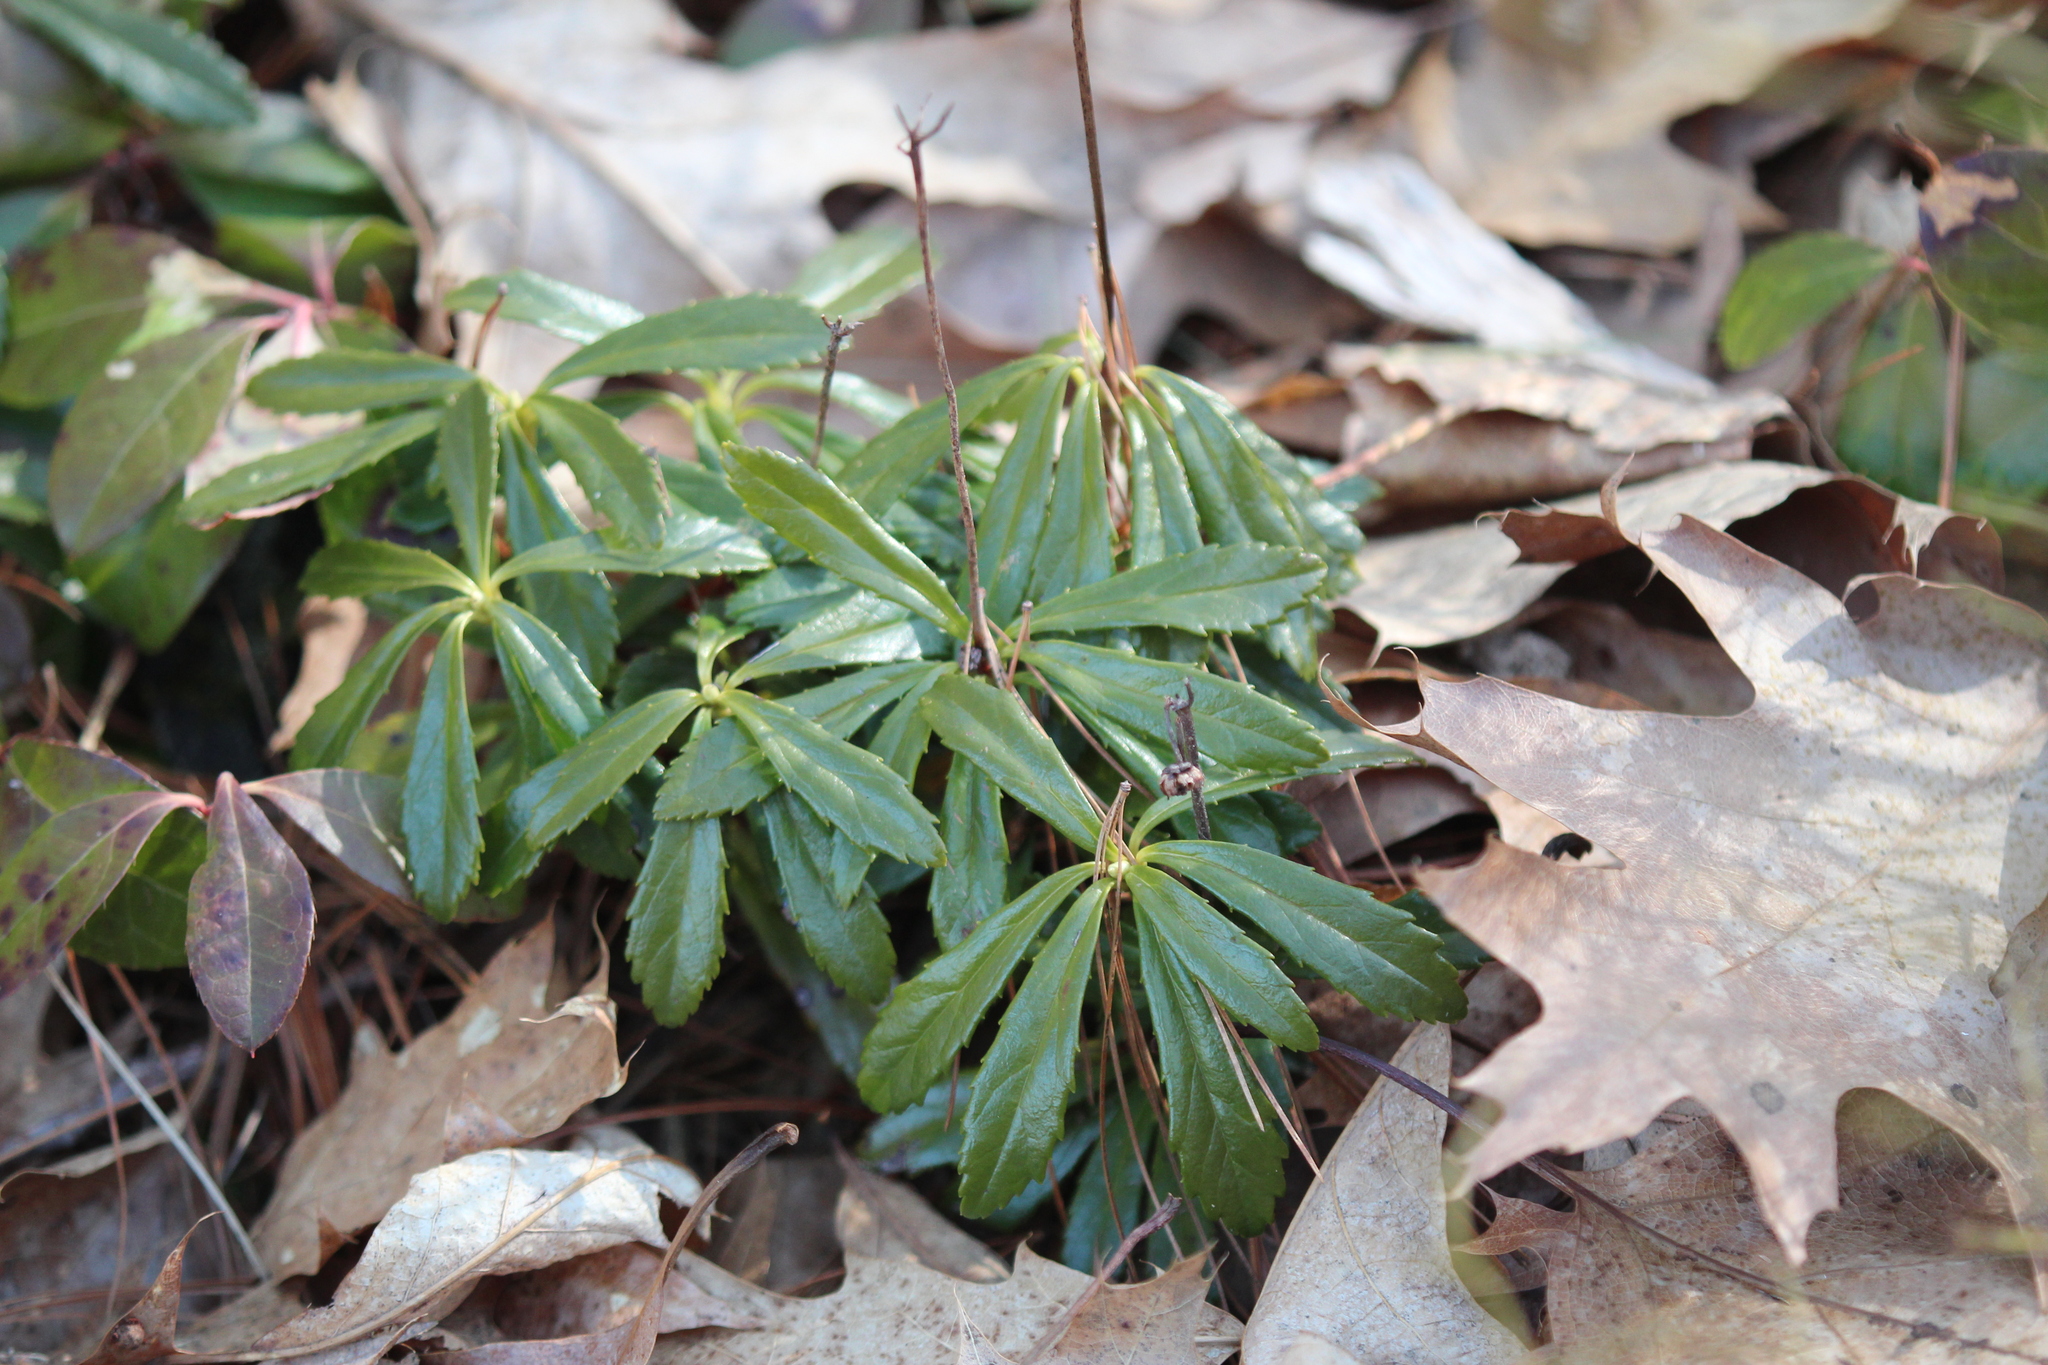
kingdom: Plantae
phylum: Tracheophyta
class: Magnoliopsida
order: Ericales
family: Ericaceae
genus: Chimaphila
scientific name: Chimaphila umbellata
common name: Pipsissewa
